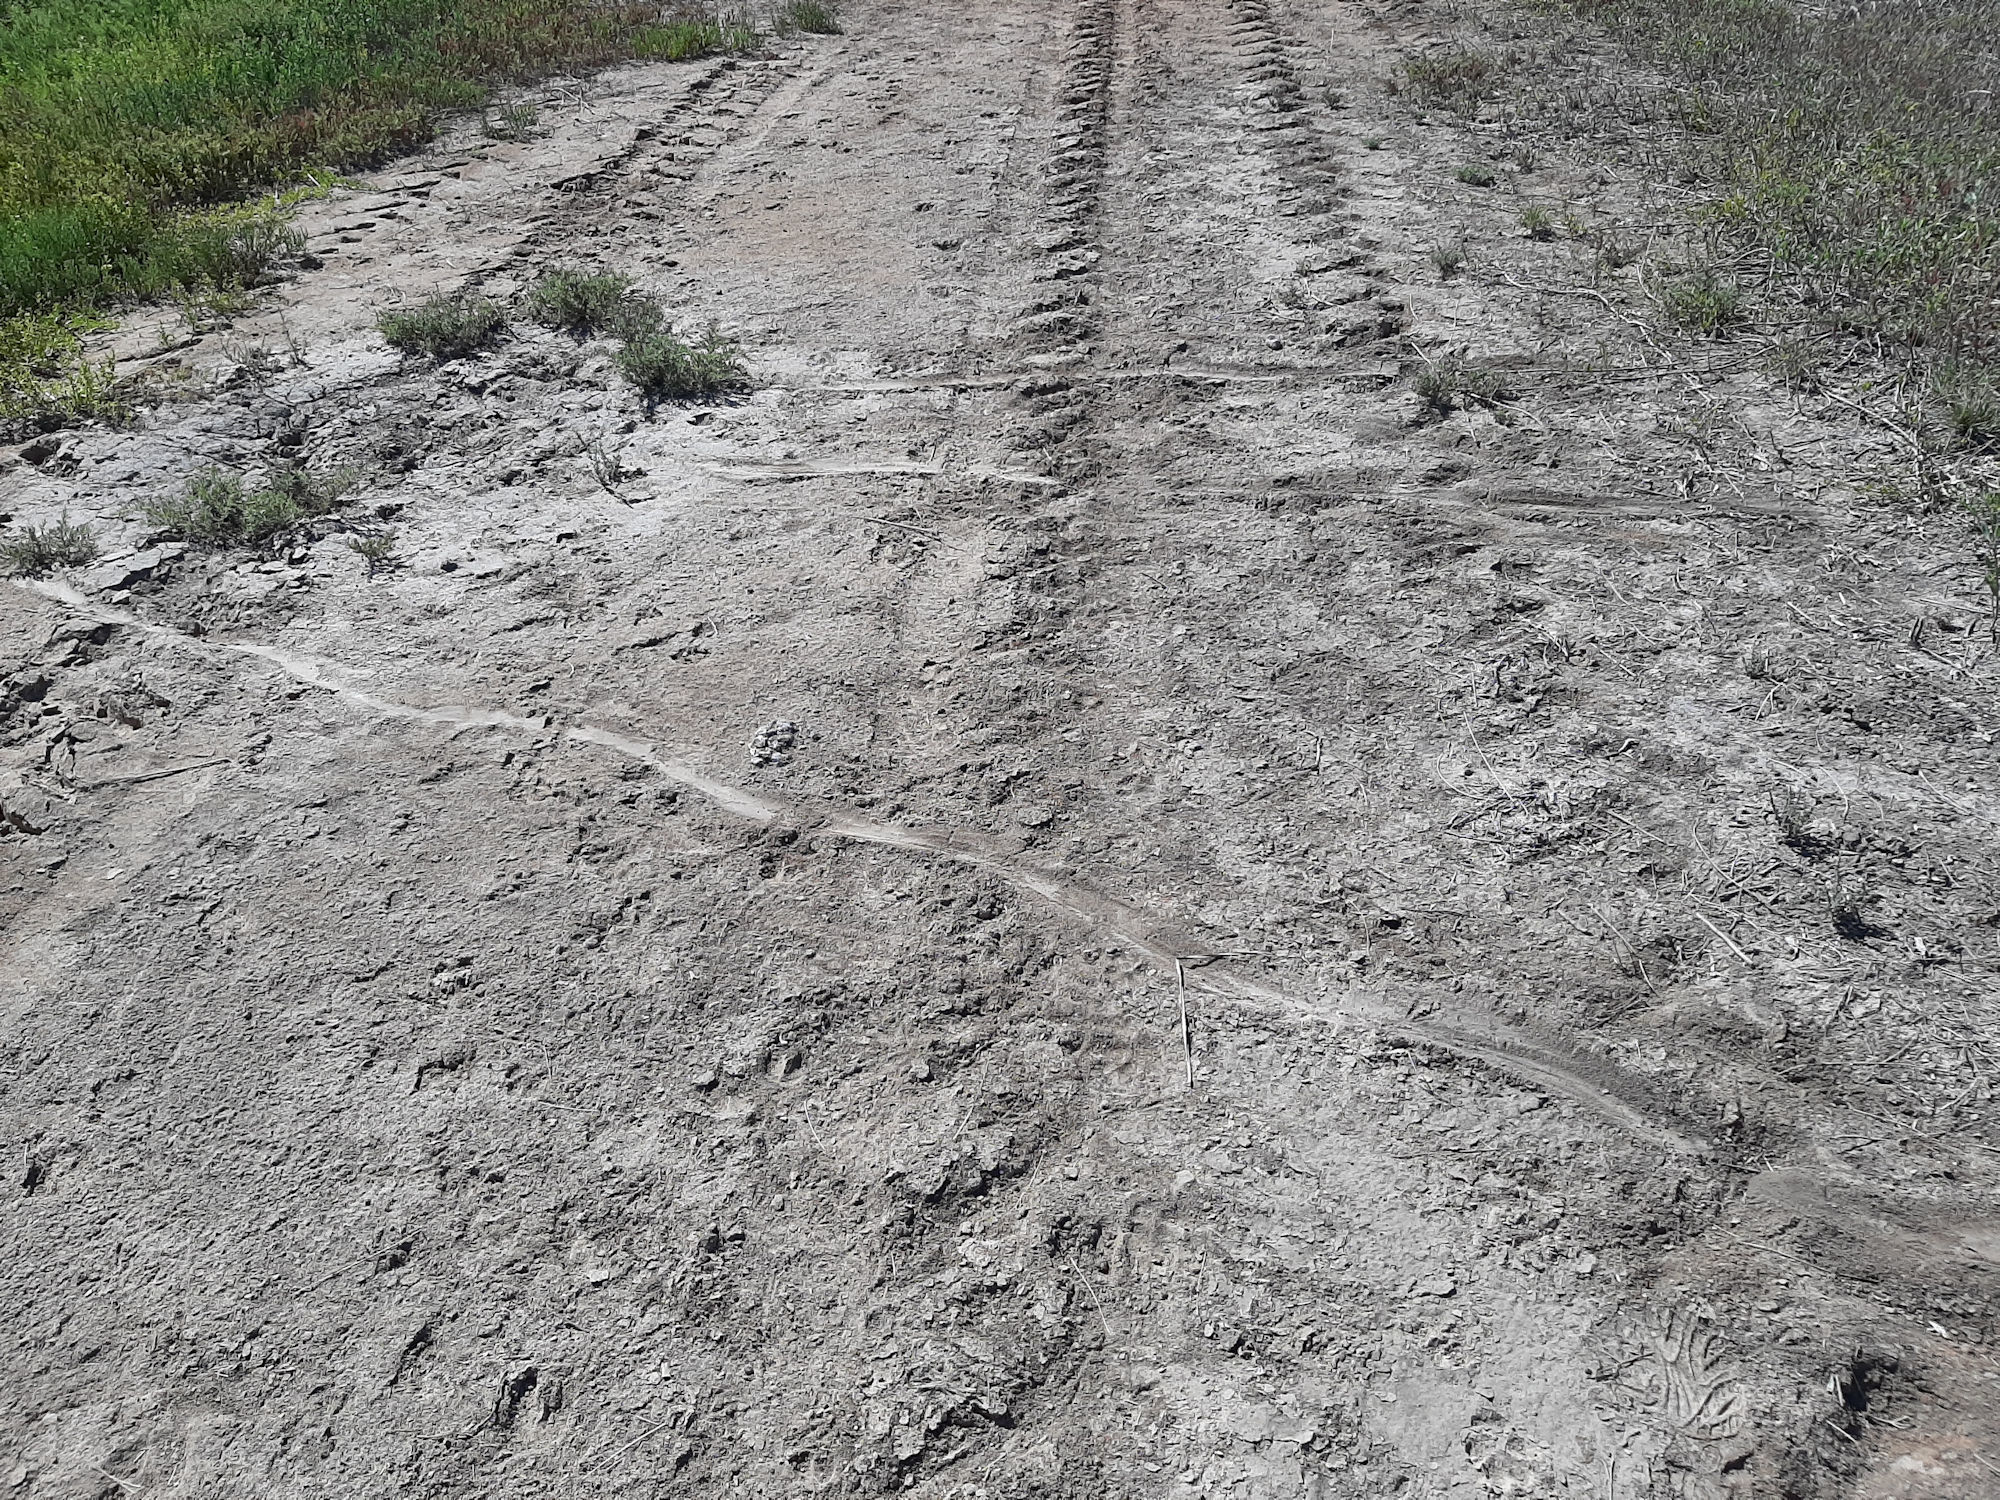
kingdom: Animalia
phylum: Chordata
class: Crocodylia
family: Alligatoridae
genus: Alligator
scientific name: Alligator mississippiensis
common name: American alligator
